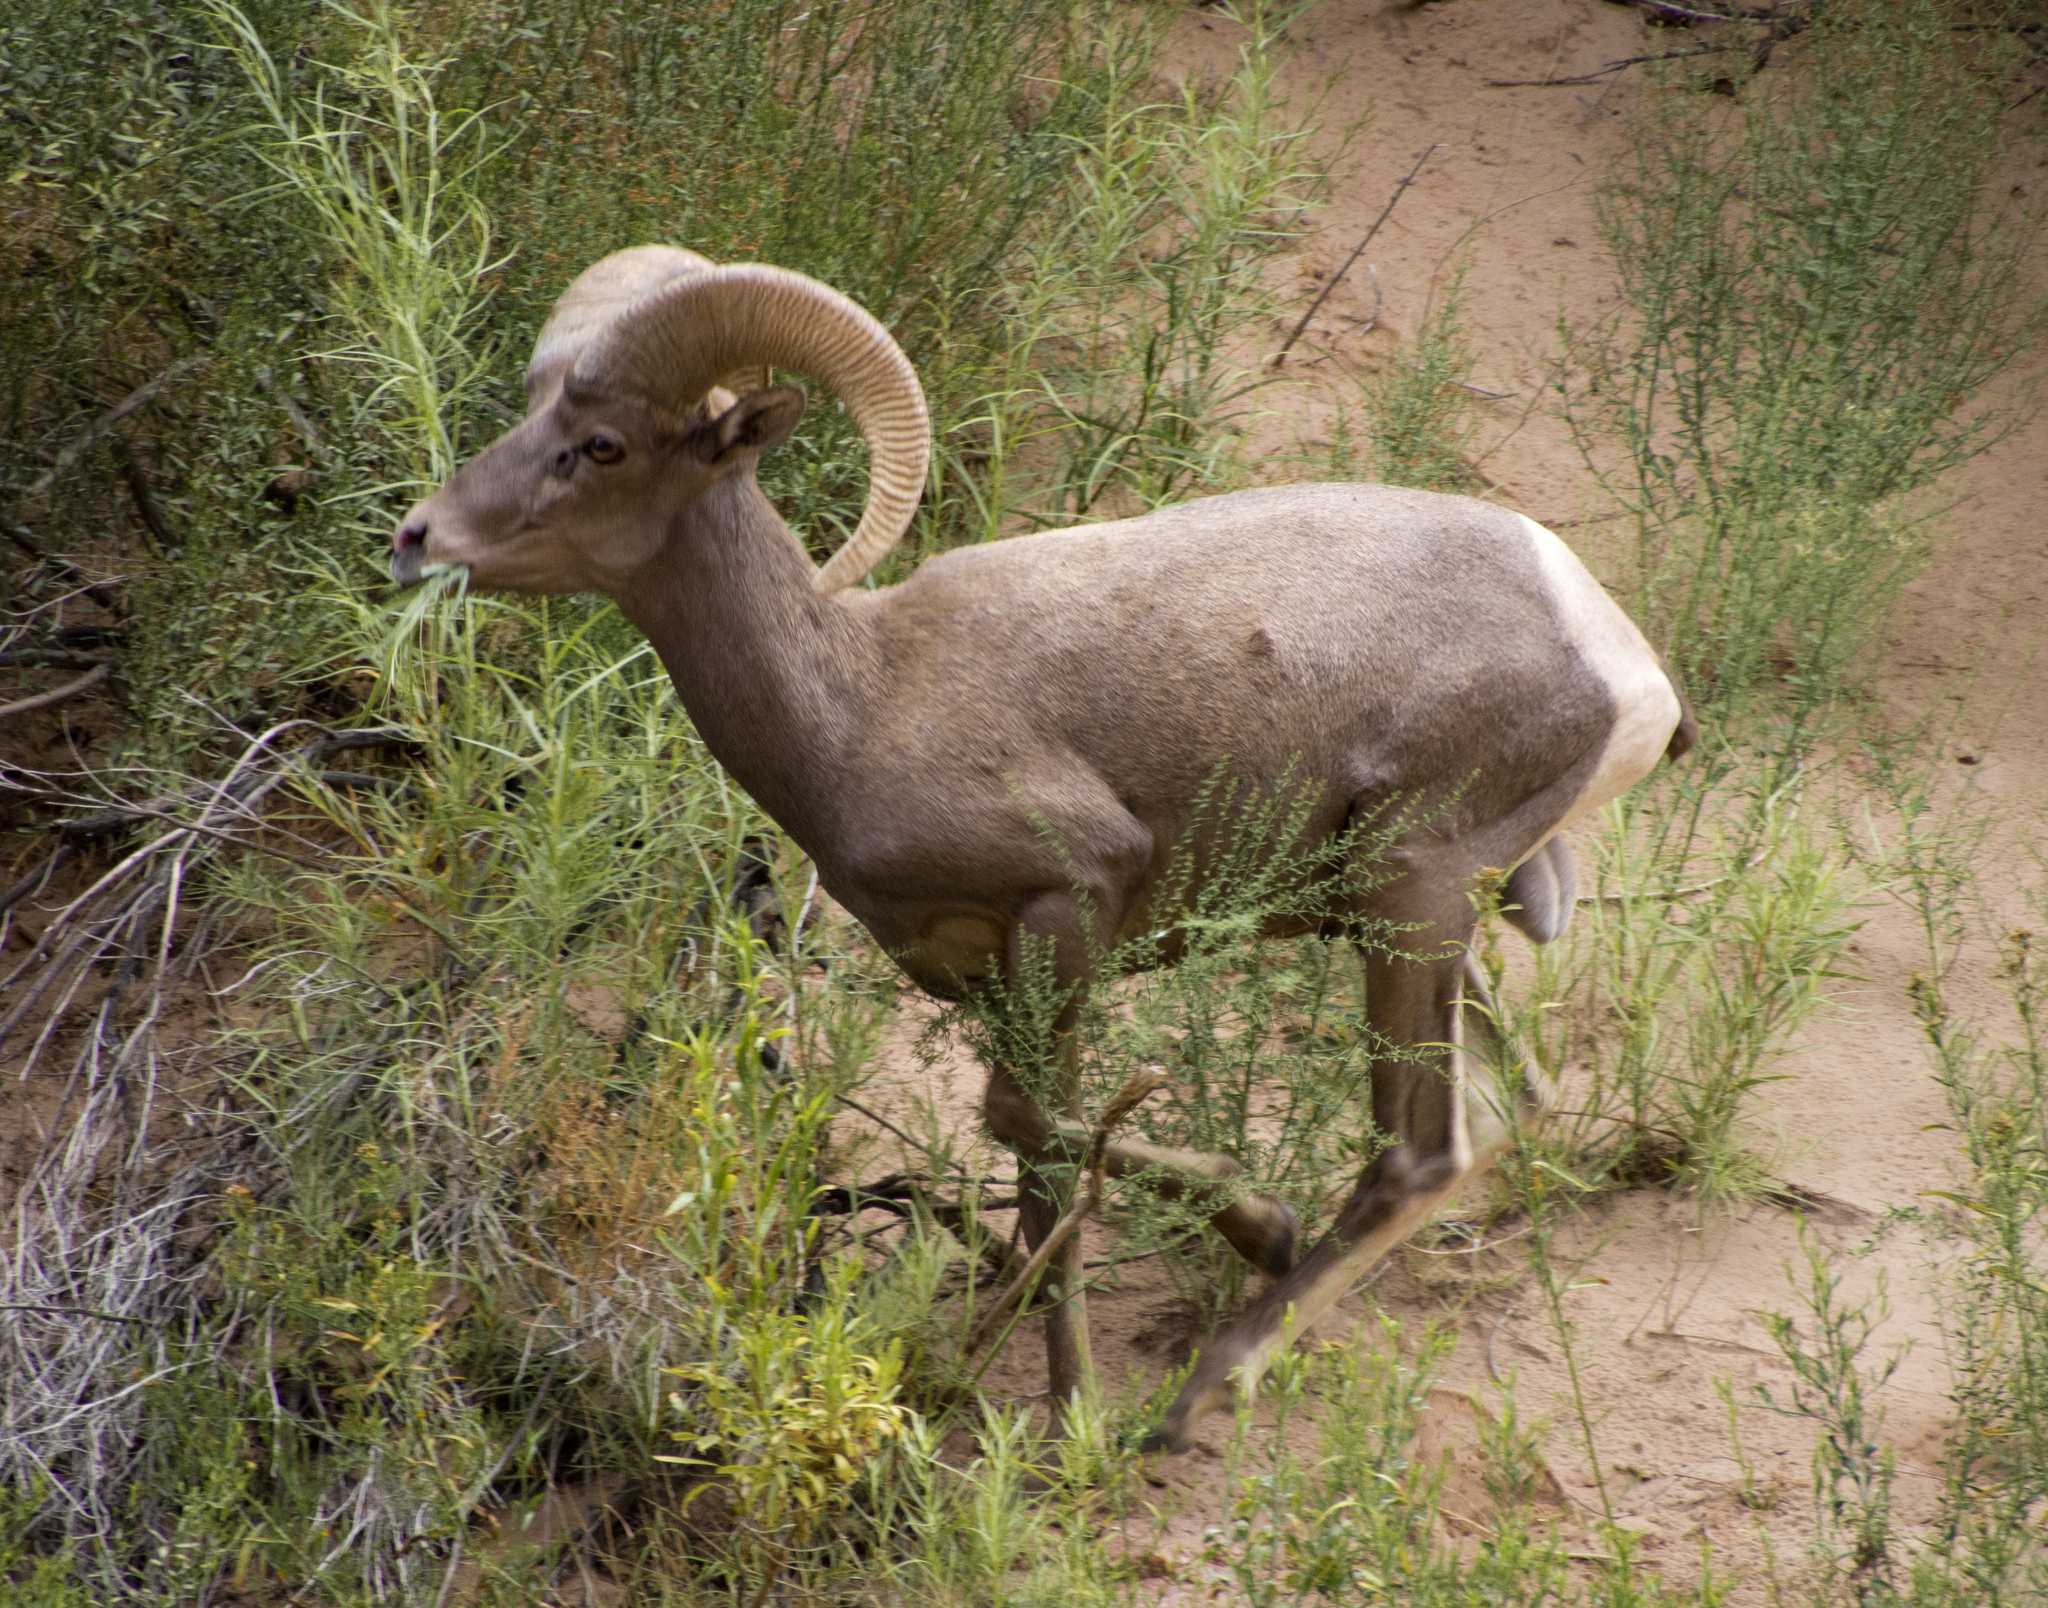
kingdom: Animalia
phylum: Chordata
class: Mammalia
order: Artiodactyla
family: Bovidae
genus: Ovis
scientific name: Ovis canadensis
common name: Bighorn sheep
